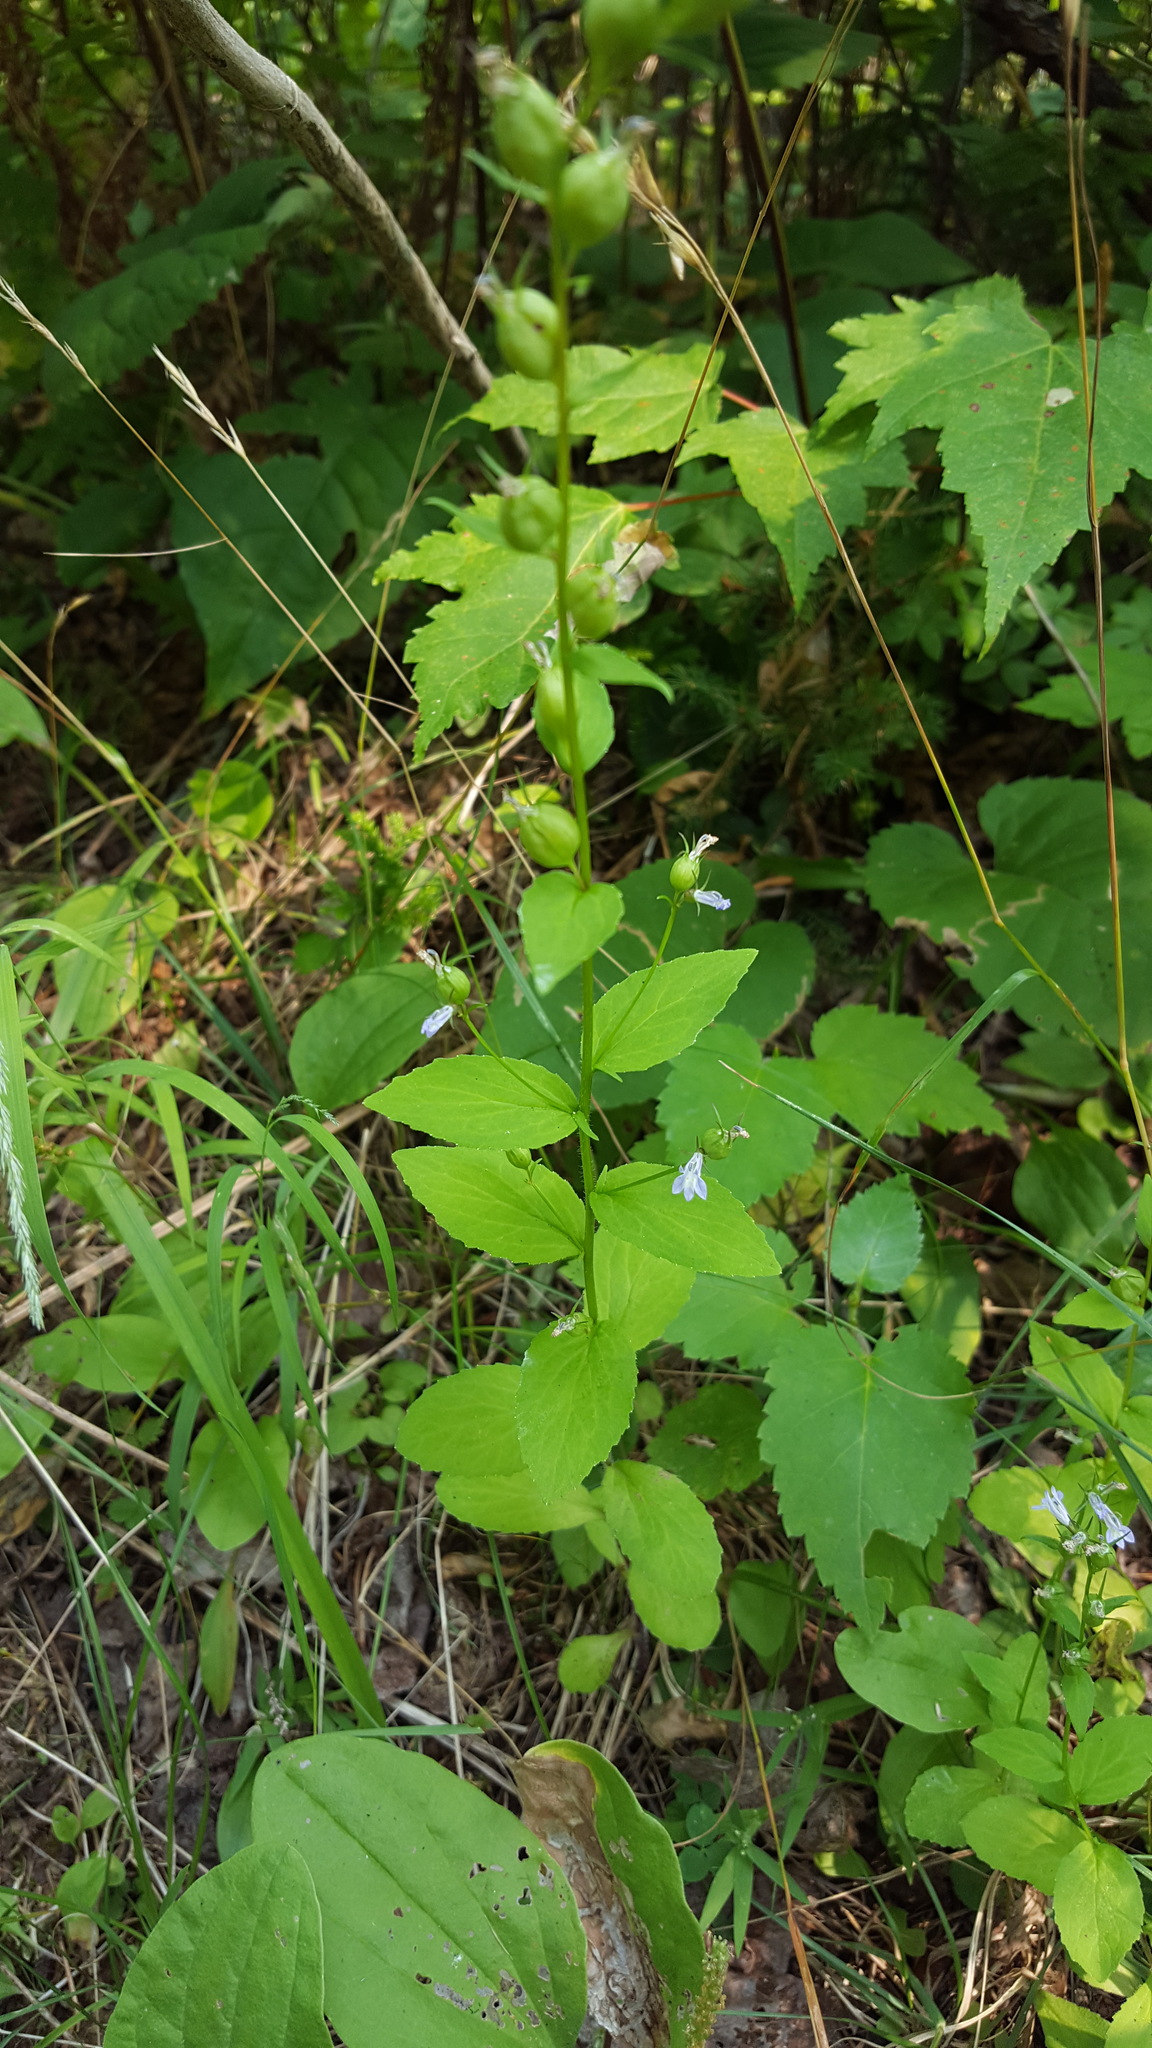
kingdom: Plantae
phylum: Tracheophyta
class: Magnoliopsida
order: Asterales
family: Campanulaceae
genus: Lobelia
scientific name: Lobelia inflata
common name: Indian tobacco
